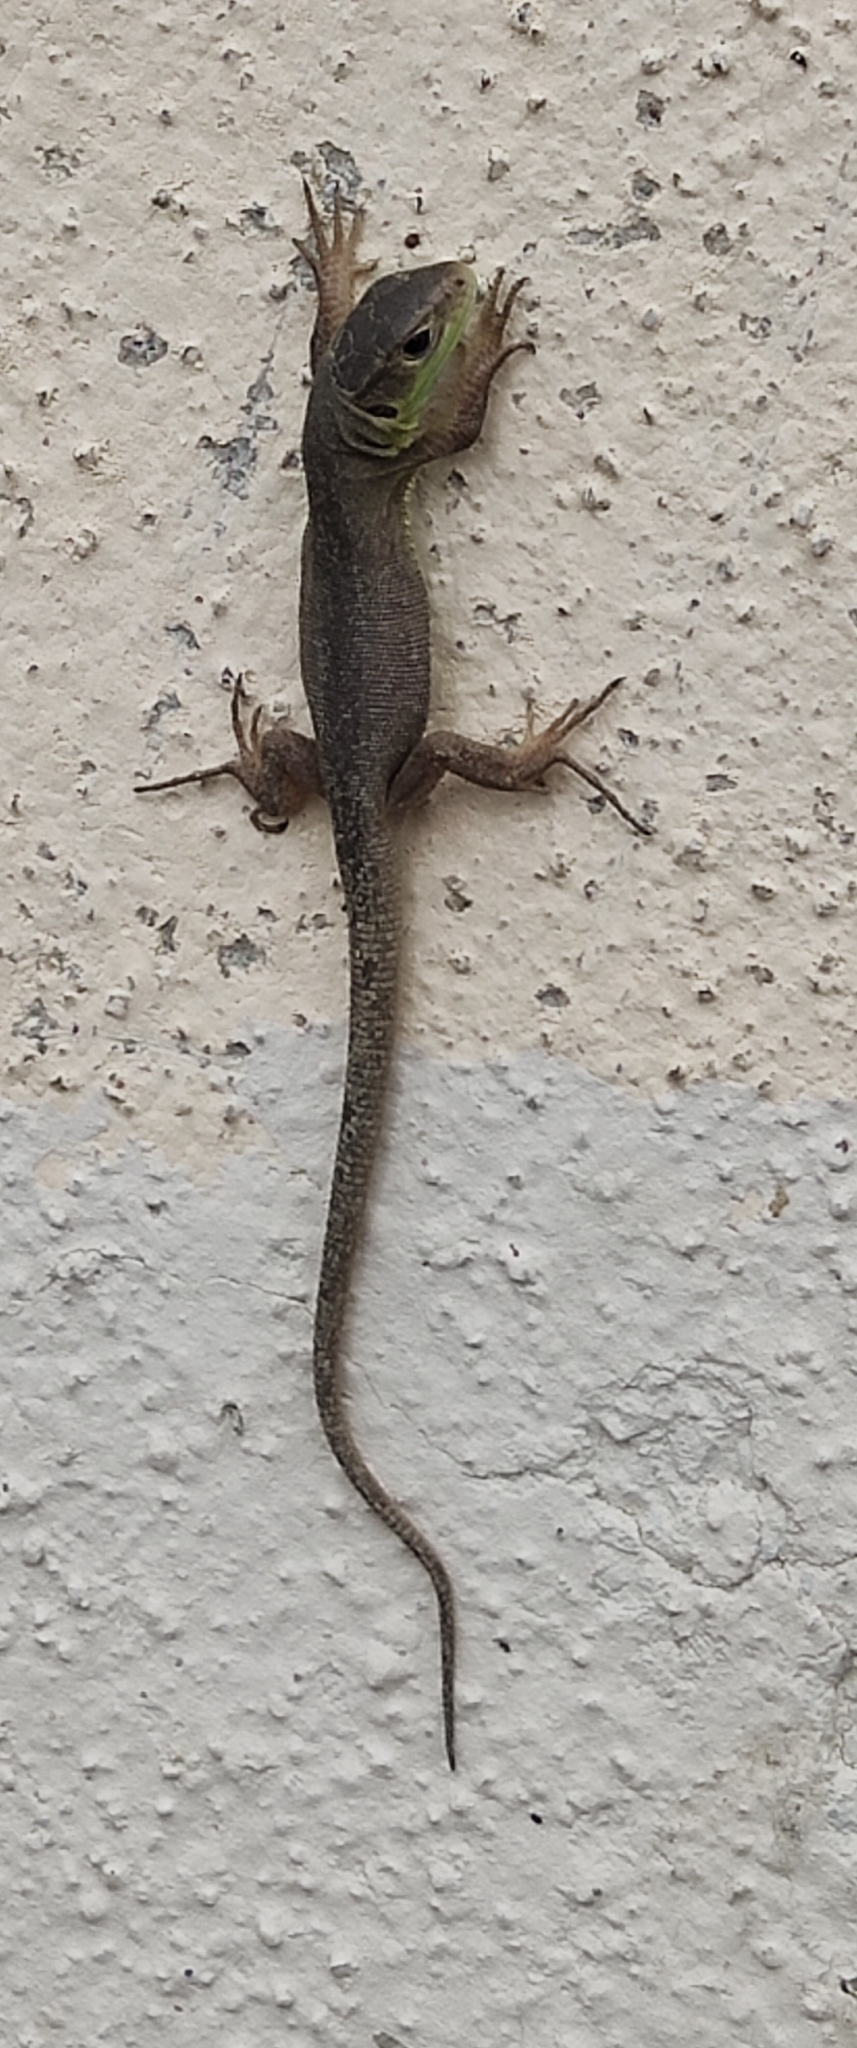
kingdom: Animalia
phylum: Chordata
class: Squamata
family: Lacertidae
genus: Lacerta
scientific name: Lacerta bilineata
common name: Western green lizard
